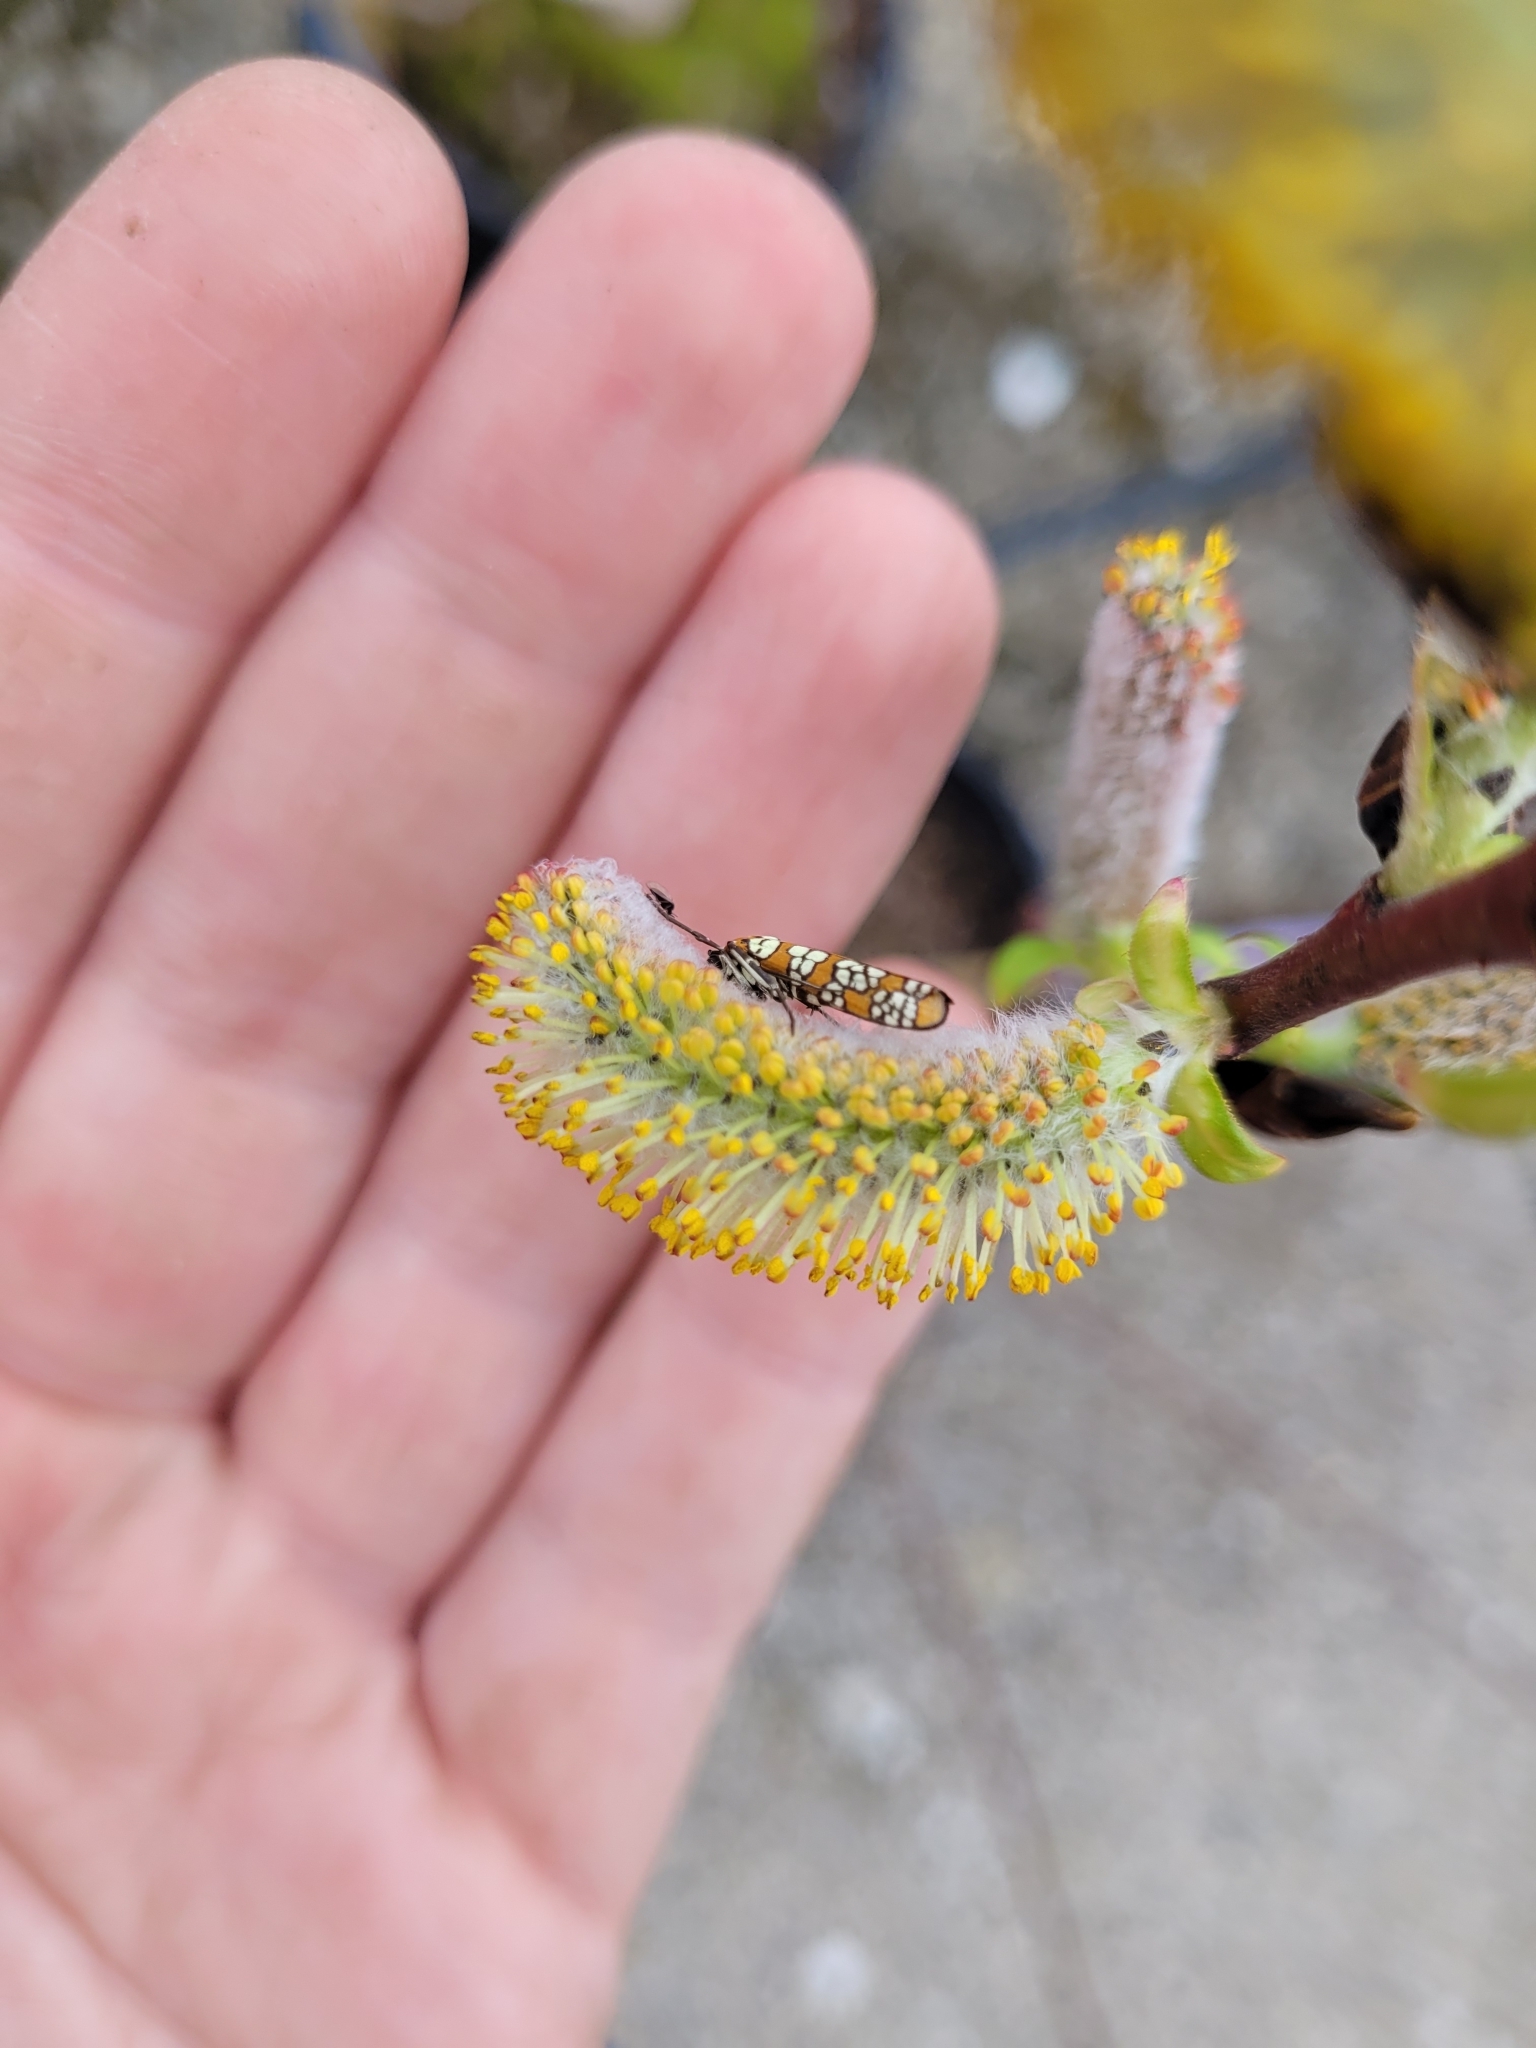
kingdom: Animalia
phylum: Arthropoda
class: Insecta
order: Lepidoptera
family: Attevidae
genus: Atteva
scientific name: Atteva punctella
